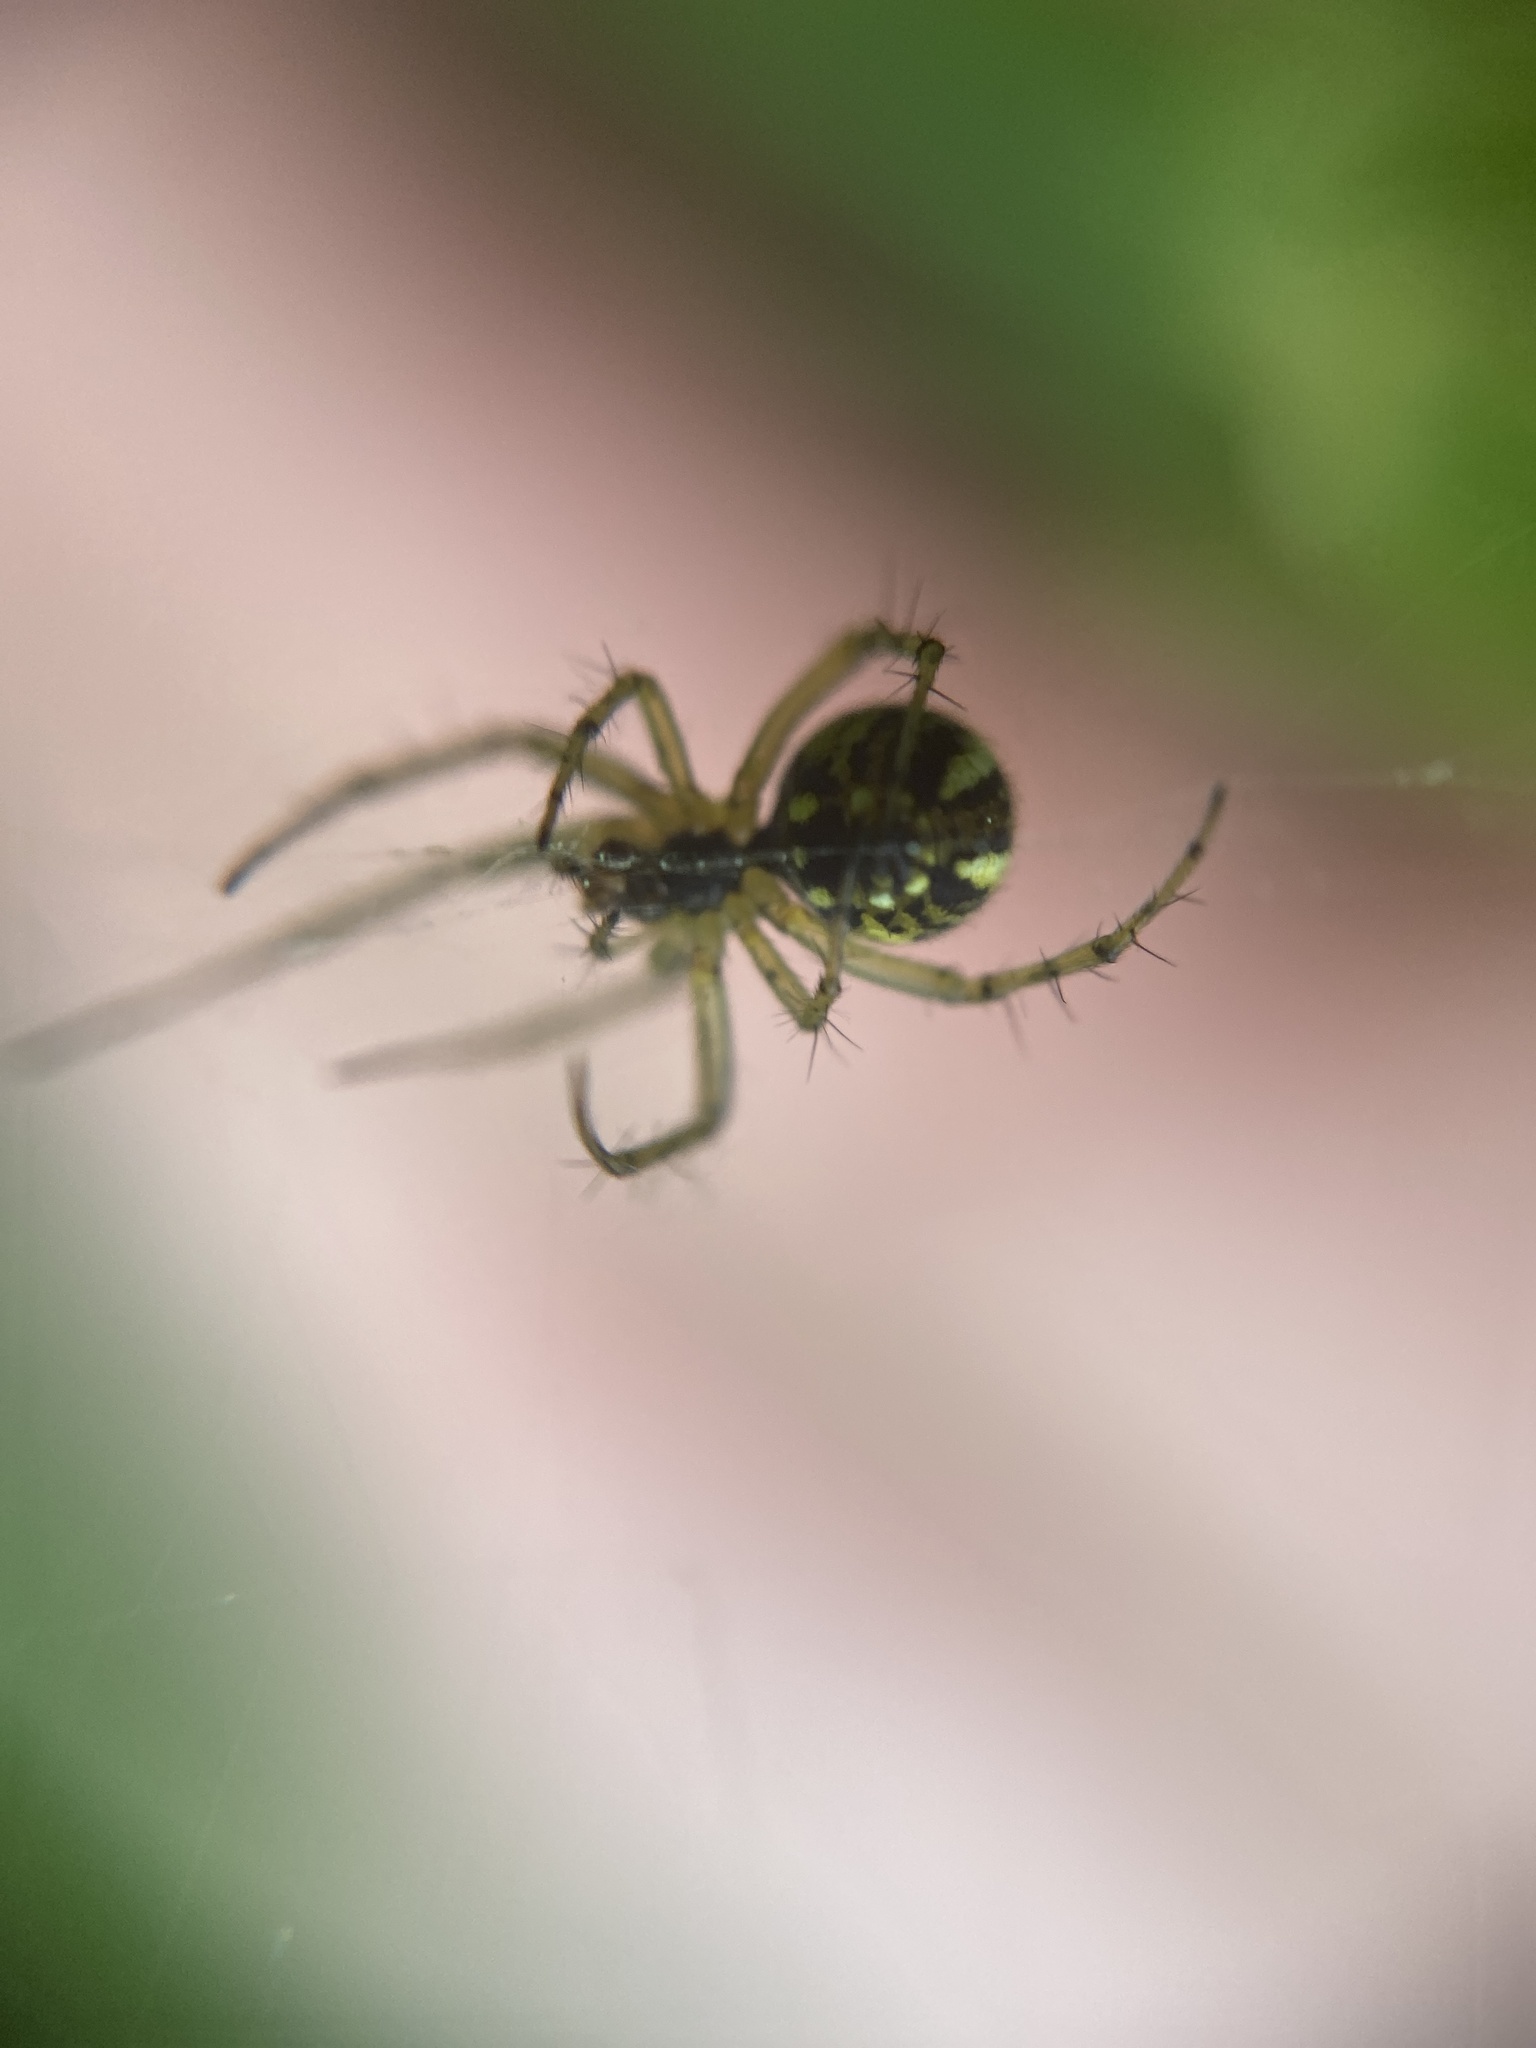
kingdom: Animalia
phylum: Arthropoda
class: Arachnida
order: Araneae
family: Araneidae
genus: Mangora
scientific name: Mangora acalypha
